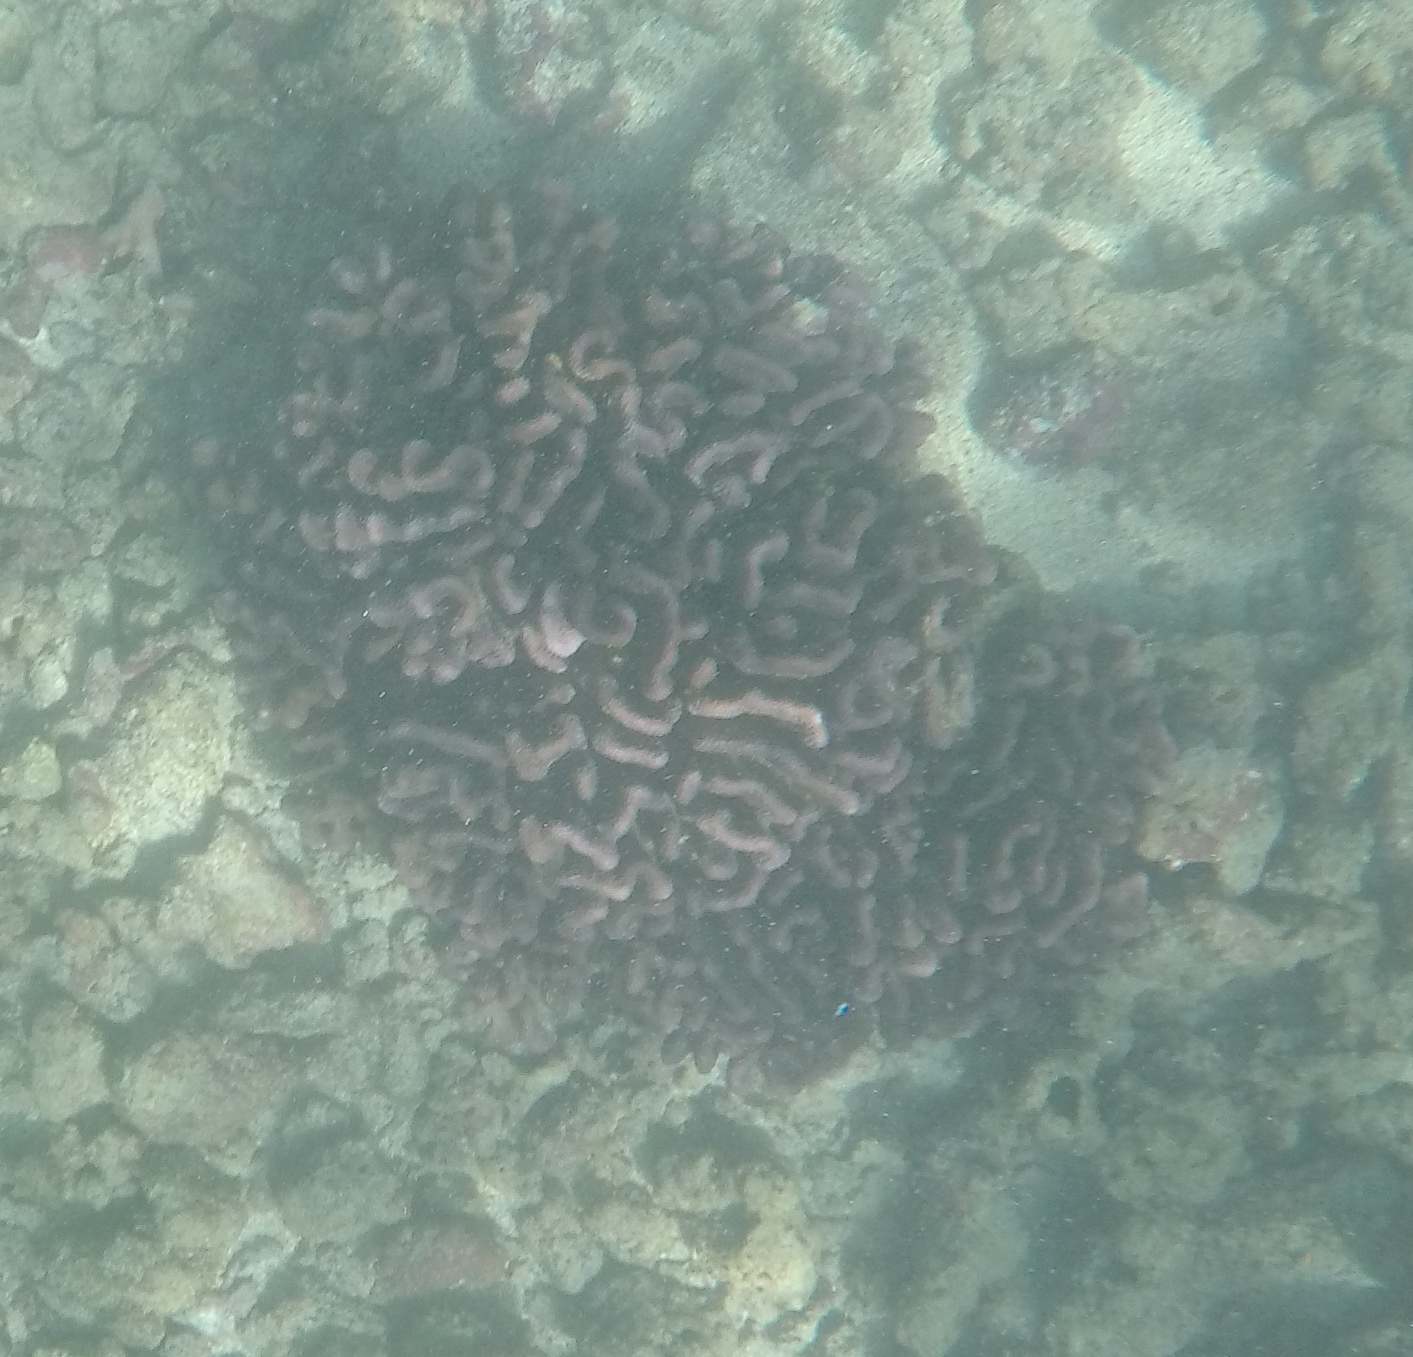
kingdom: Animalia
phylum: Cnidaria
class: Anthozoa
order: Scleractinia
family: Pocilloporidae
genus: Pocillopora
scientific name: Pocillopora meandrina
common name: Cauliflower coral
